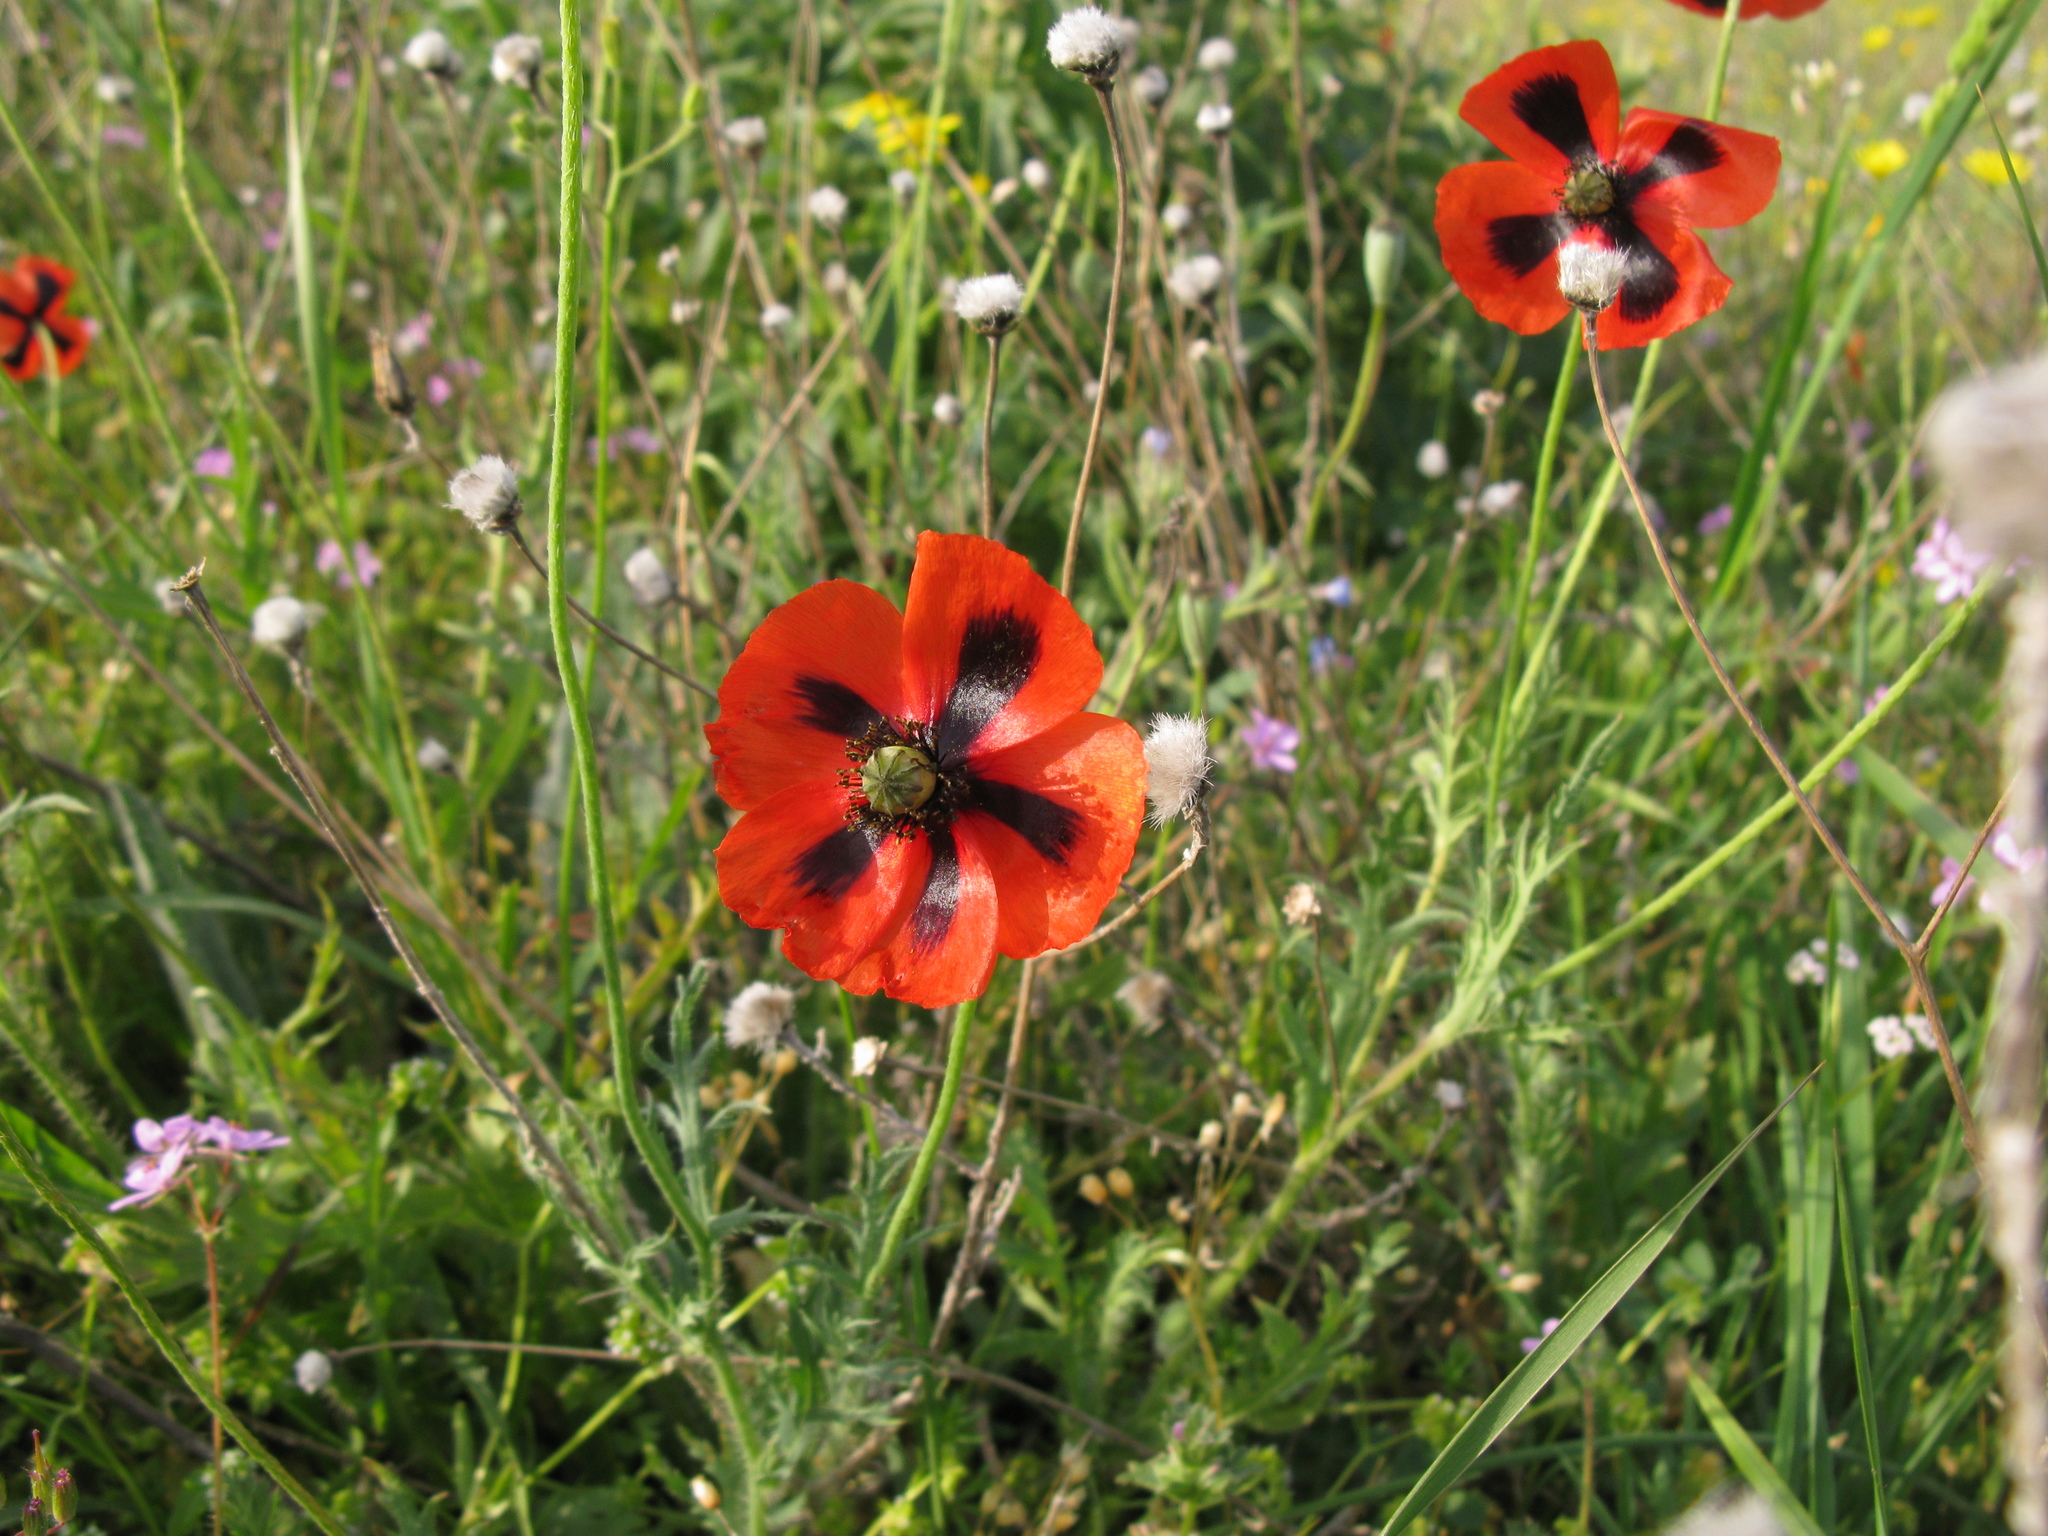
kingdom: Plantae
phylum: Tracheophyta
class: Magnoliopsida
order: Ranunculales
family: Papaveraceae
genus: Papaver
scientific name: Papaver dubium
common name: Long-headed poppy
